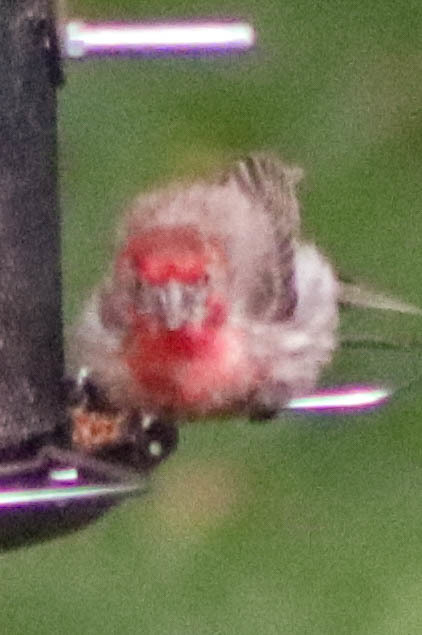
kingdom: Animalia
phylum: Chordata
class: Aves
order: Passeriformes
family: Fringillidae
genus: Haemorhous
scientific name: Haemorhous mexicanus
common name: House finch
